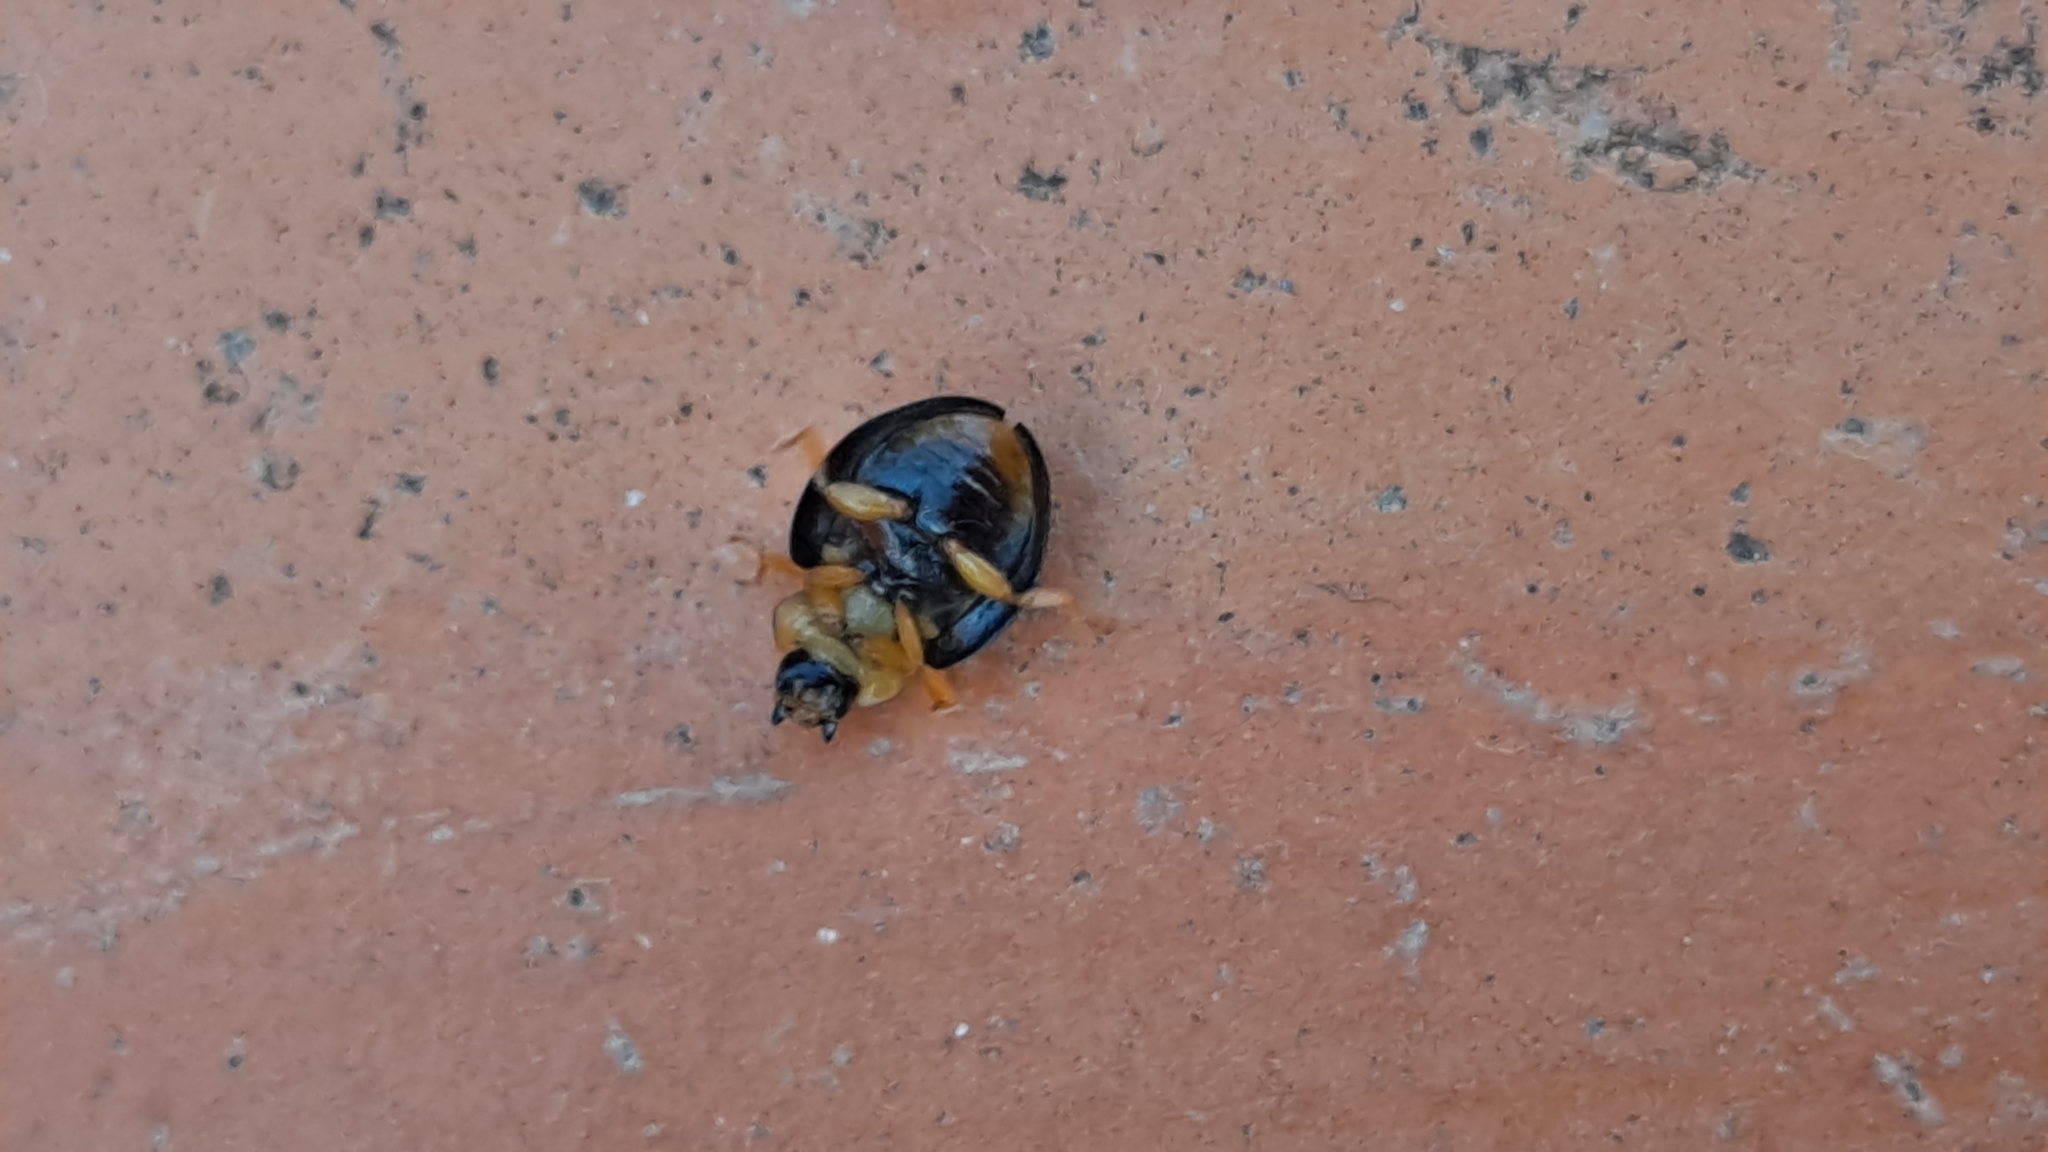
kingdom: Animalia
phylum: Arthropoda
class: Insecta
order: Coleoptera
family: Coccinellidae
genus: Parexochomus
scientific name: Parexochomus nigromaculatus
